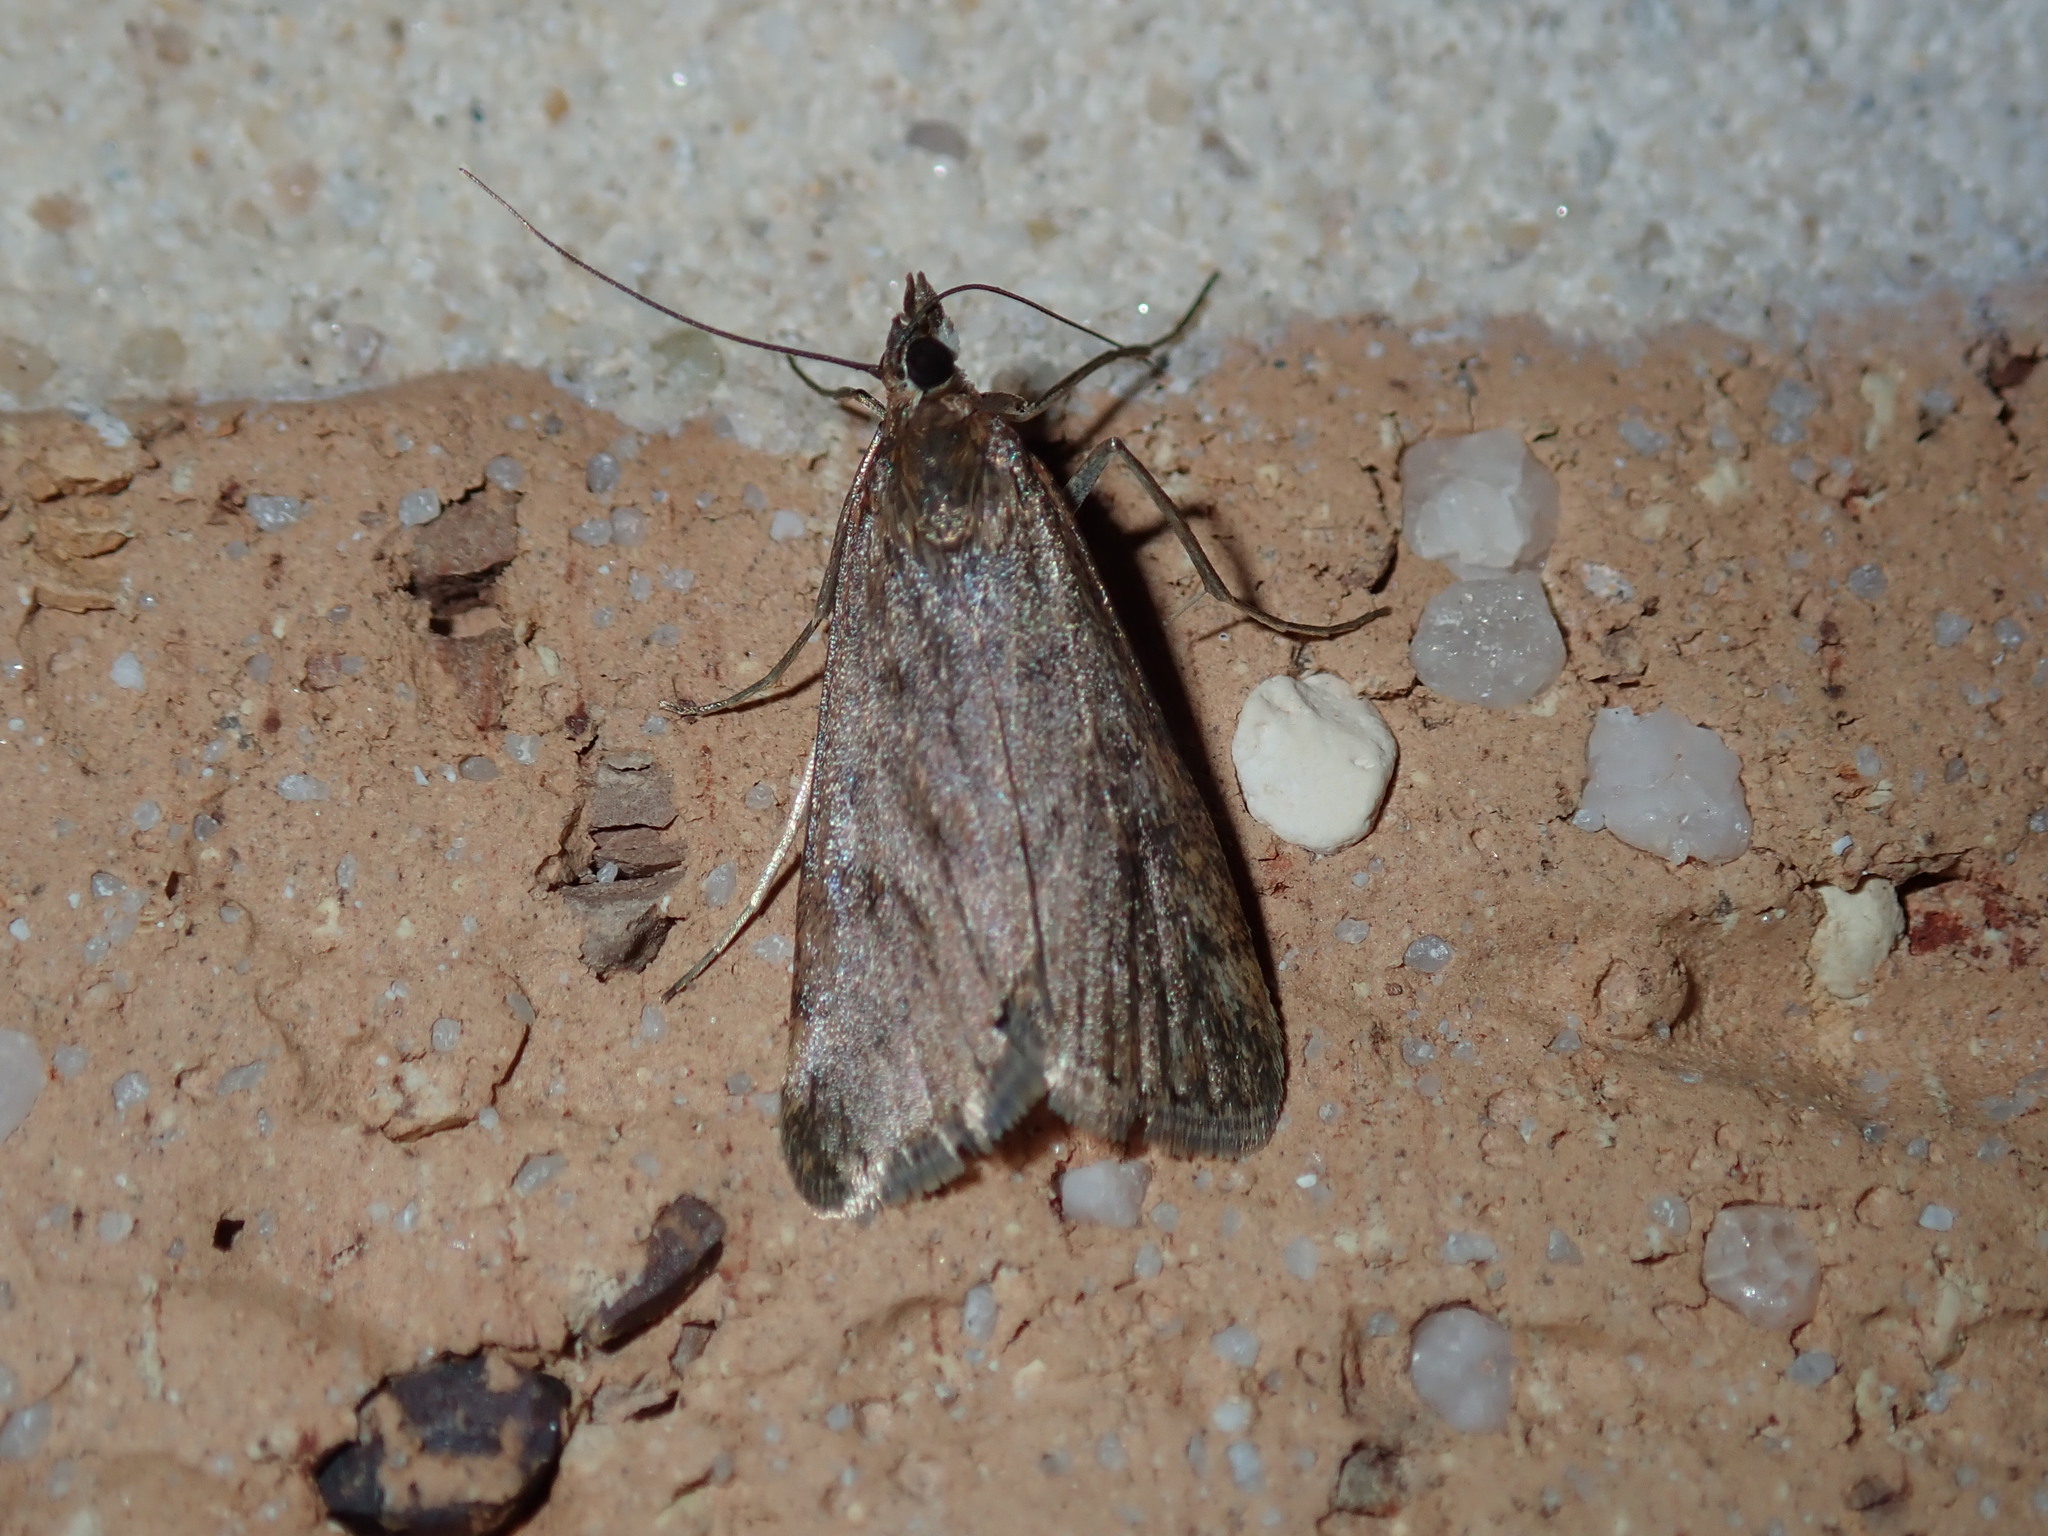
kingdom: Animalia
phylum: Arthropoda
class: Insecta
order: Lepidoptera
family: Crambidae
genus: Achyra
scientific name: Achyra affinitalis
